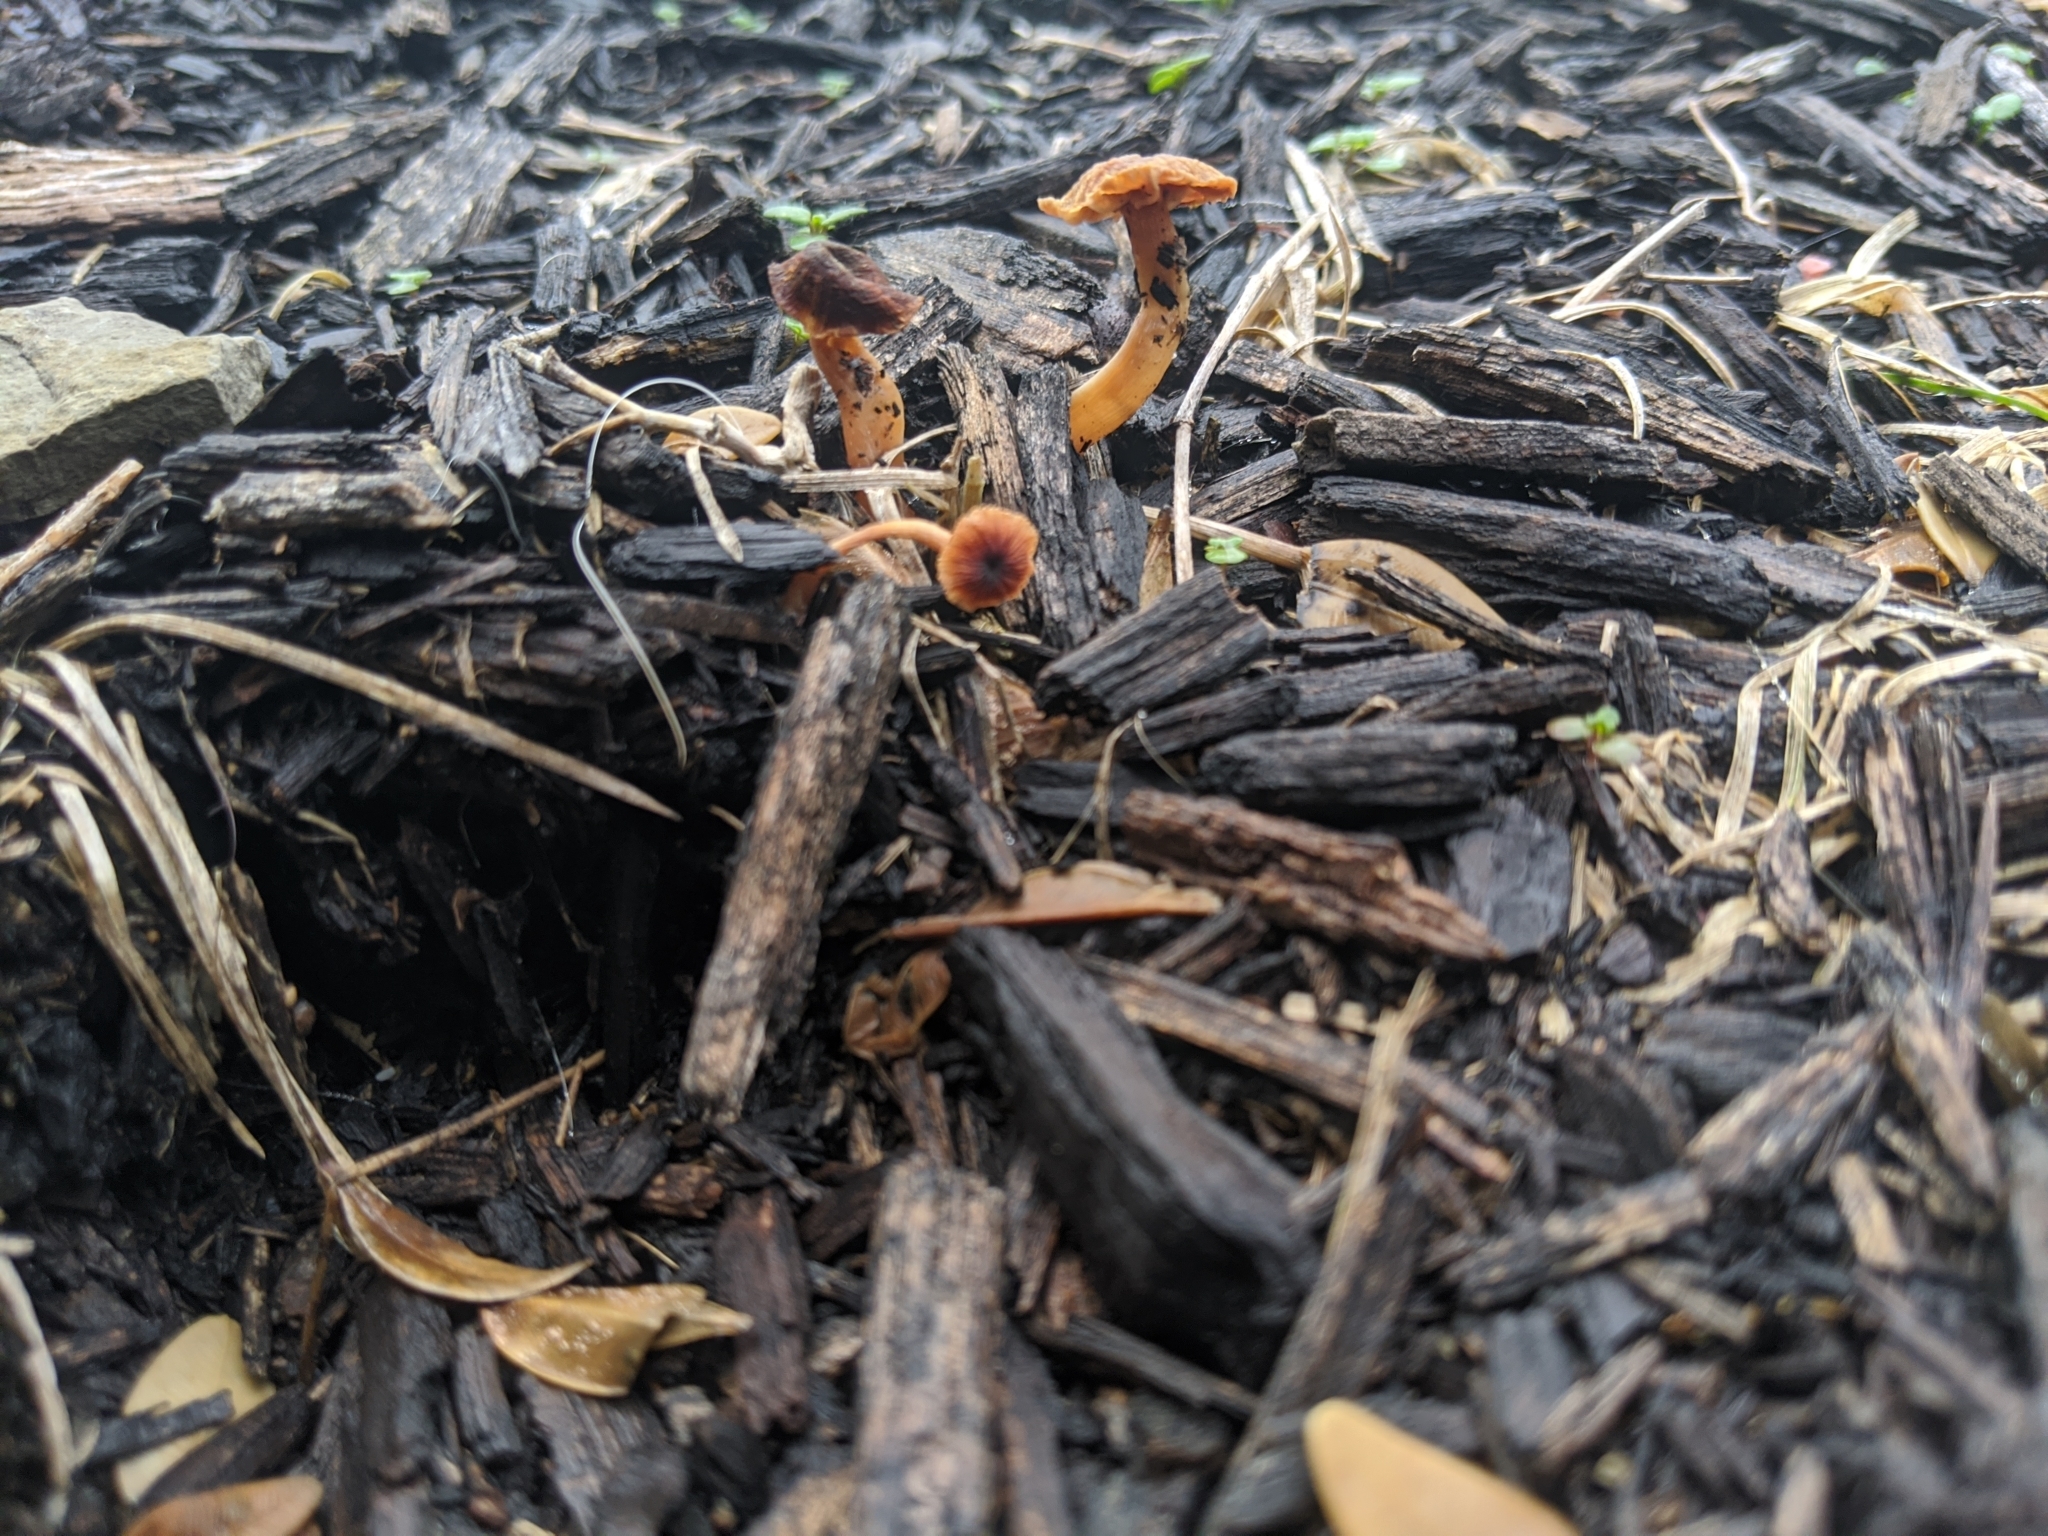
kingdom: Fungi
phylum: Basidiomycota
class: Agaricomycetes
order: Agaricales
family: Tubariaceae
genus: Tubaria
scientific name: Tubaria furfuracea
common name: Scurfy twiglet
